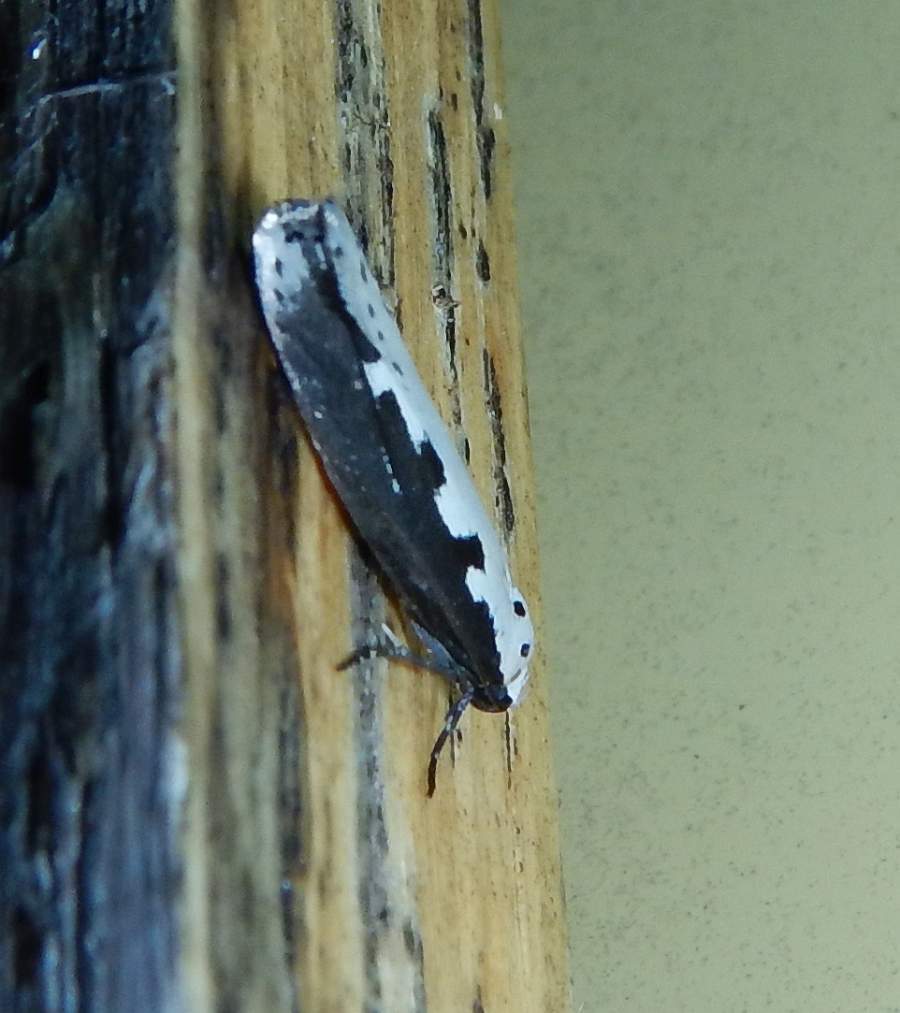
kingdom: Animalia
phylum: Arthropoda
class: Insecta
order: Lepidoptera
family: Ethmiidae
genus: Ethmia
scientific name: Ethmia bipunctella
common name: Bordered ermel
